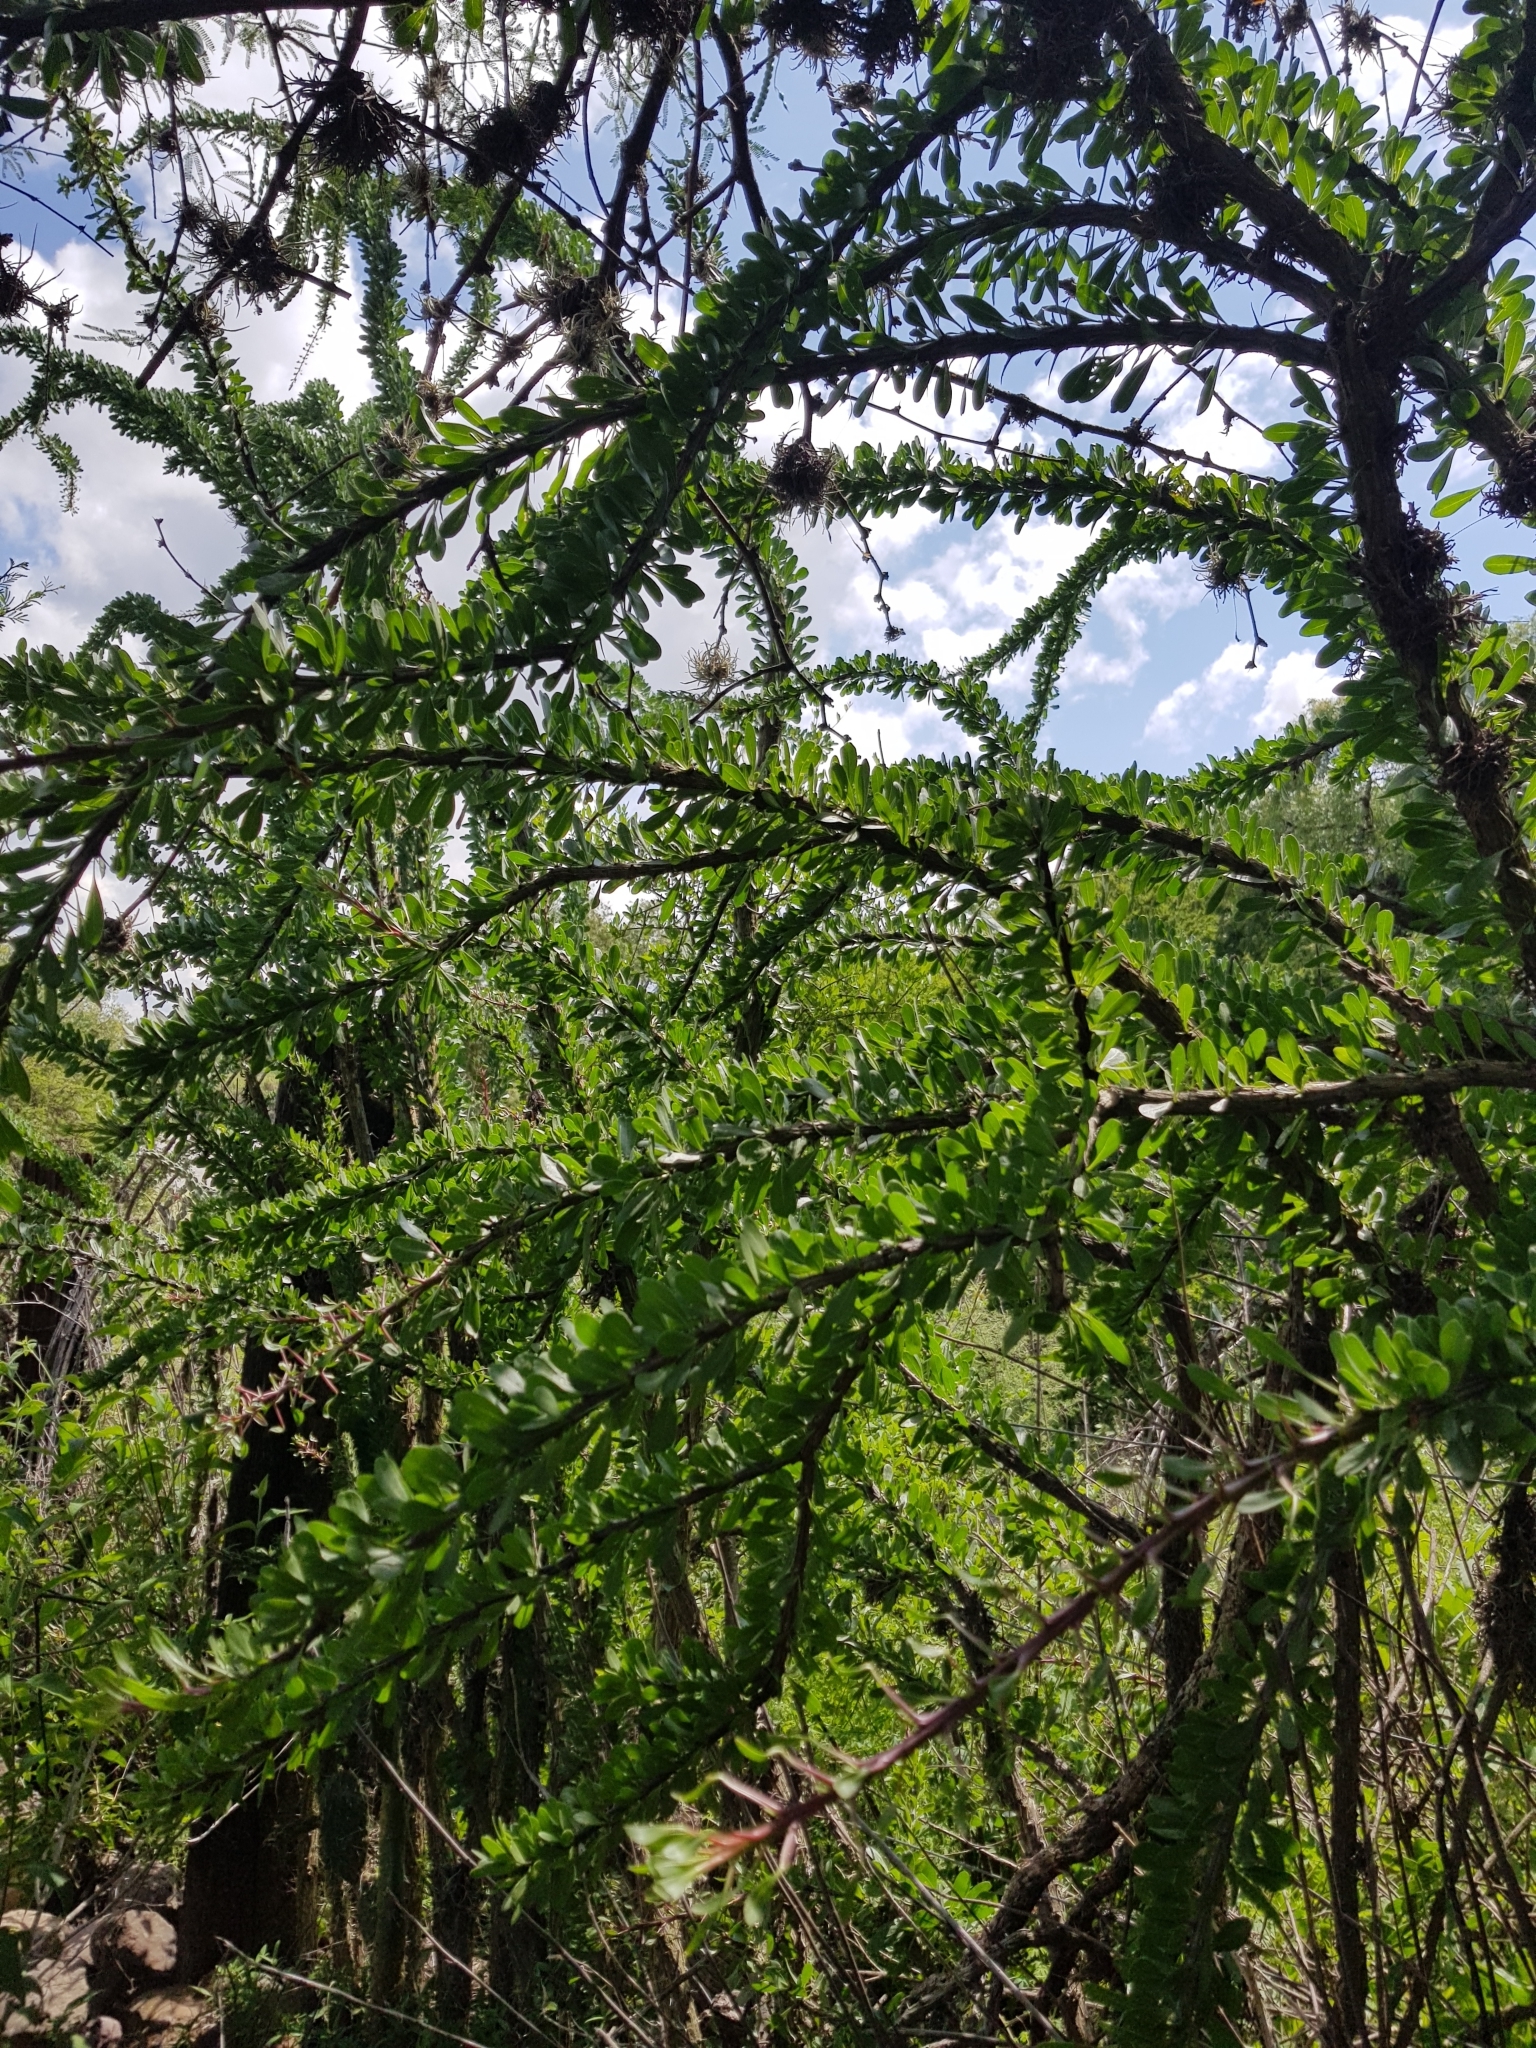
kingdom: Plantae
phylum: Tracheophyta
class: Magnoliopsida
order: Ericales
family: Fouquieriaceae
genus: Fouquieria
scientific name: Fouquieria splendens
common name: Vine-cactus
